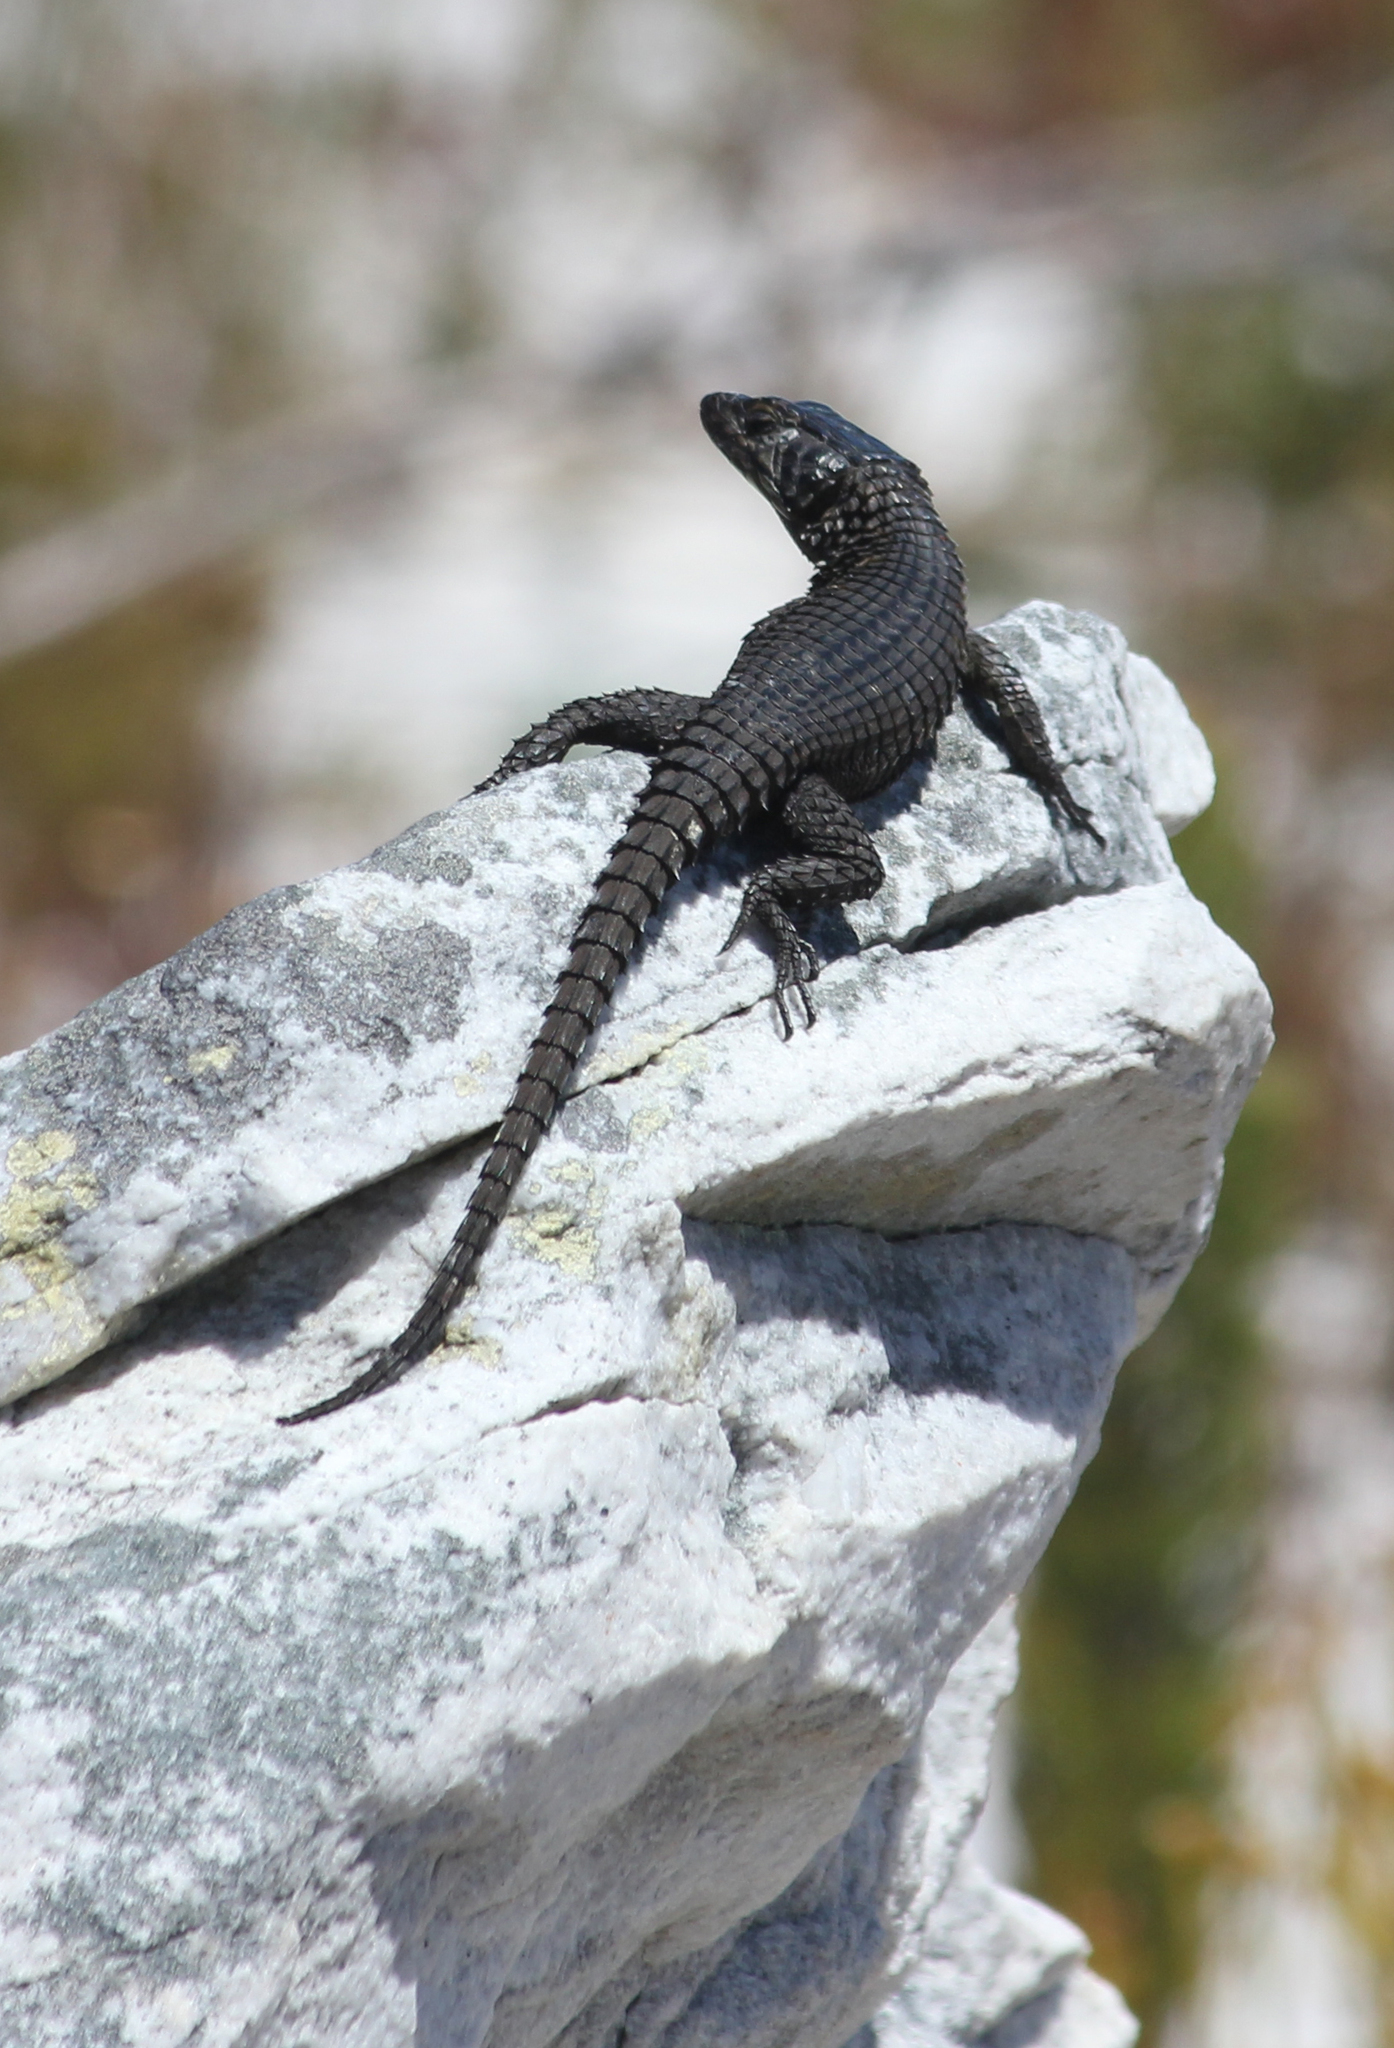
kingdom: Animalia
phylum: Chordata
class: Squamata
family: Cordylidae
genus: Cordylus
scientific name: Cordylus niger
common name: Black girdled lizard
